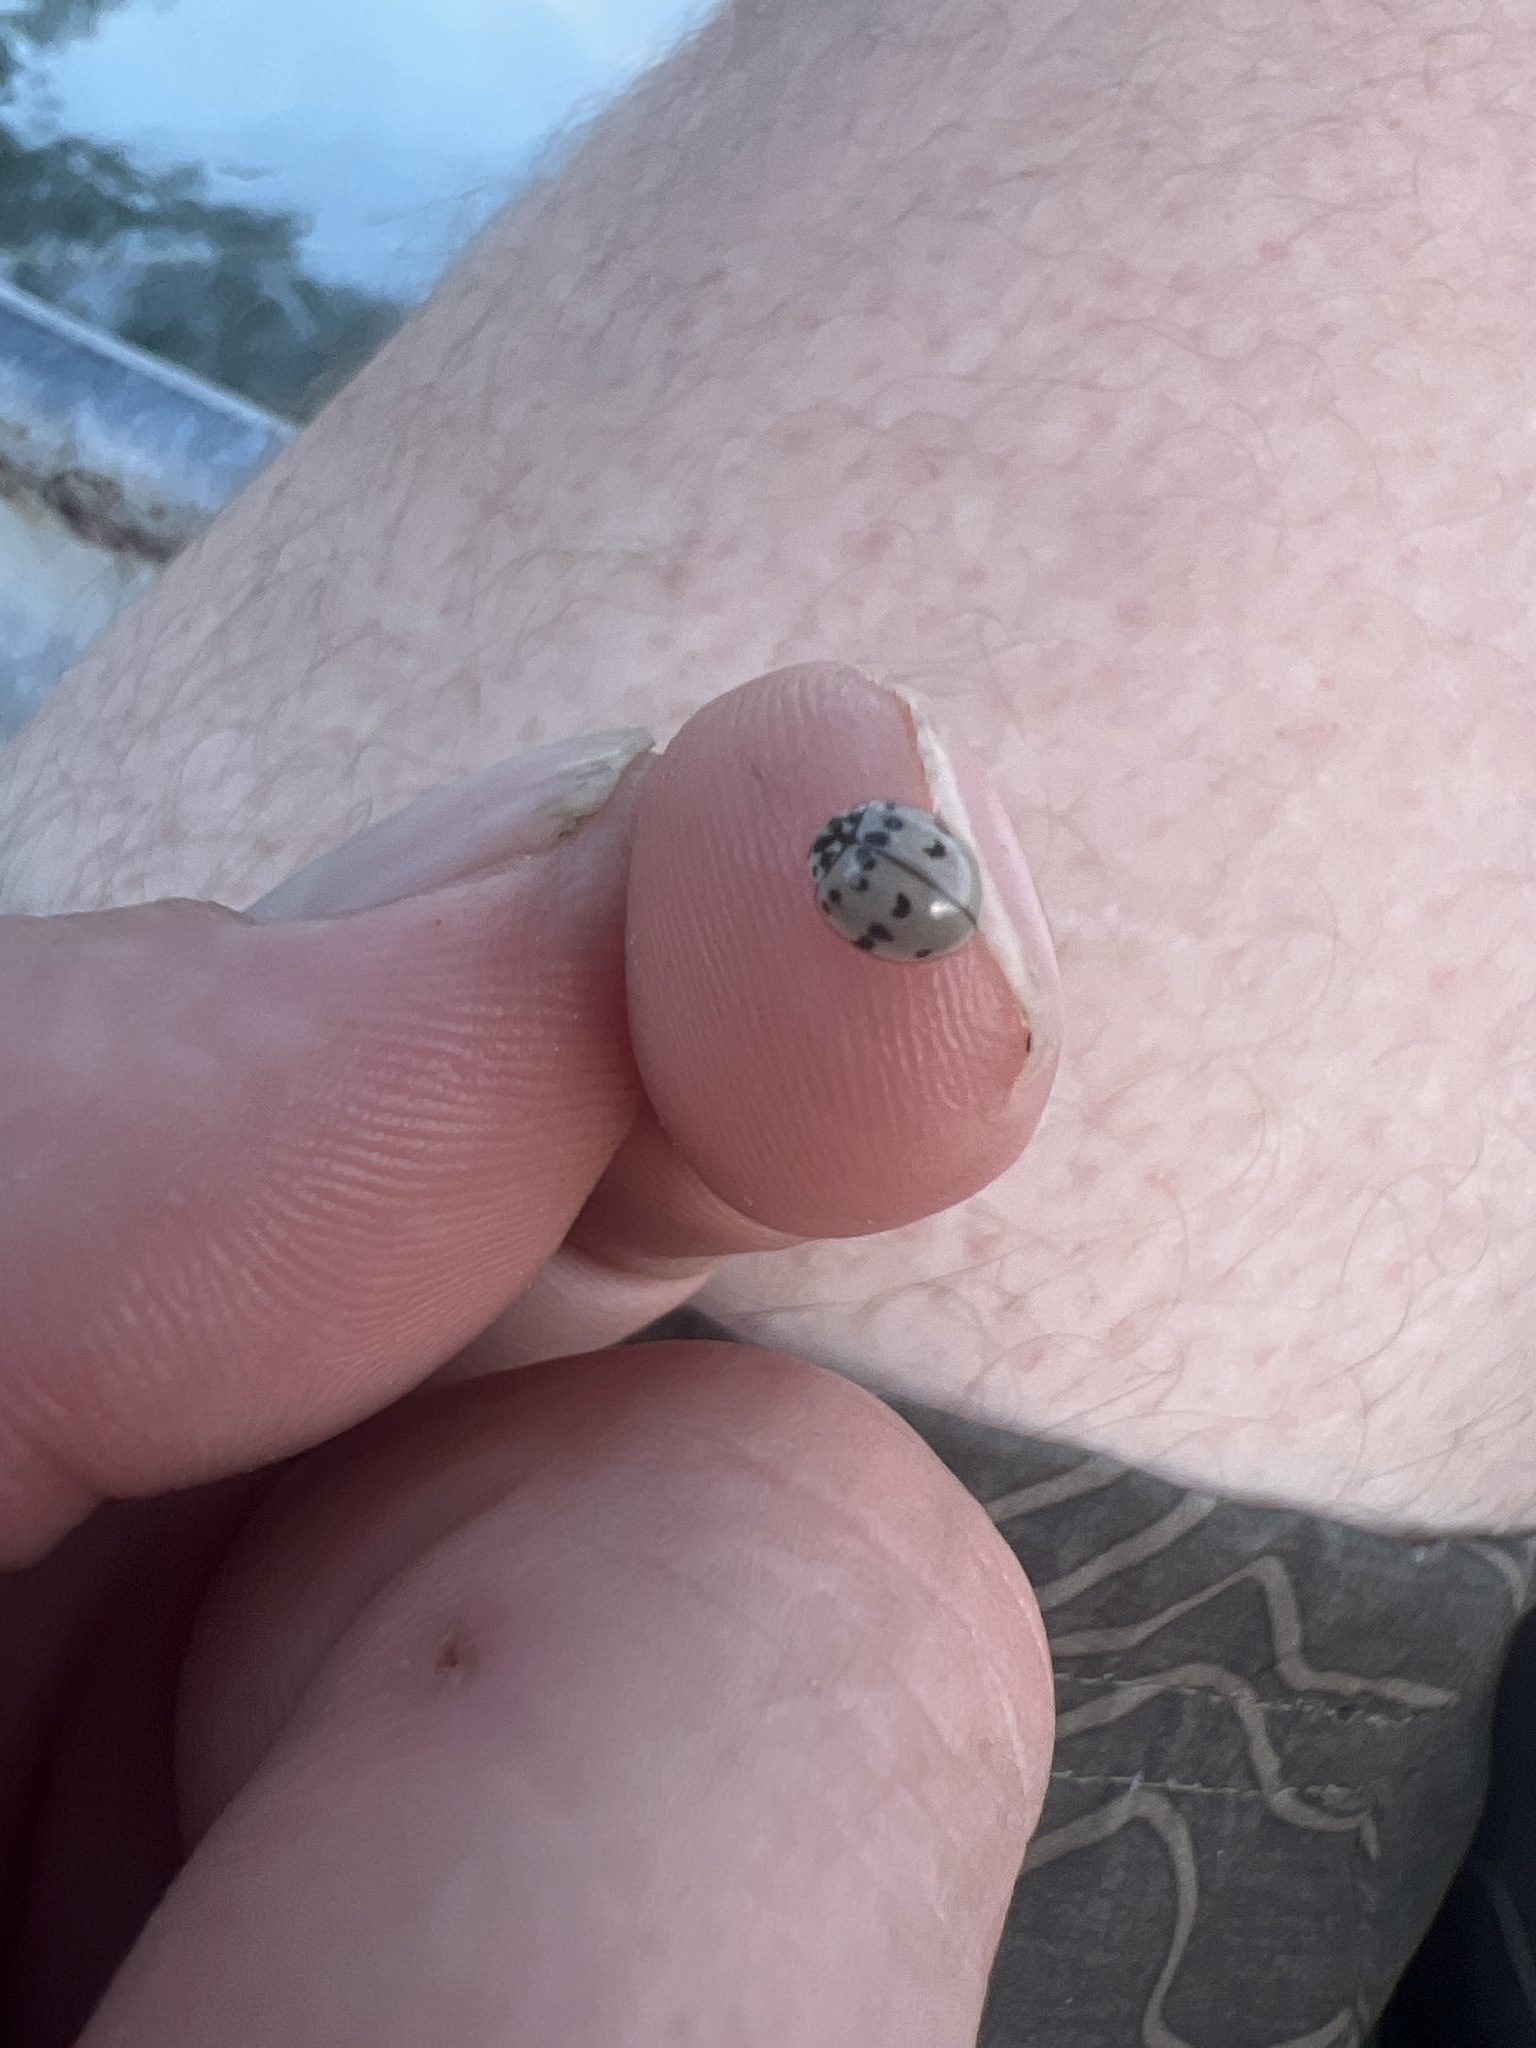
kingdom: Animalia
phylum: Arthropoda
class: Insecta
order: Coleoptera
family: Coccinellidae
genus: Olla
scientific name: Olla v-nigrum
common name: Ashy gray lady beetle
